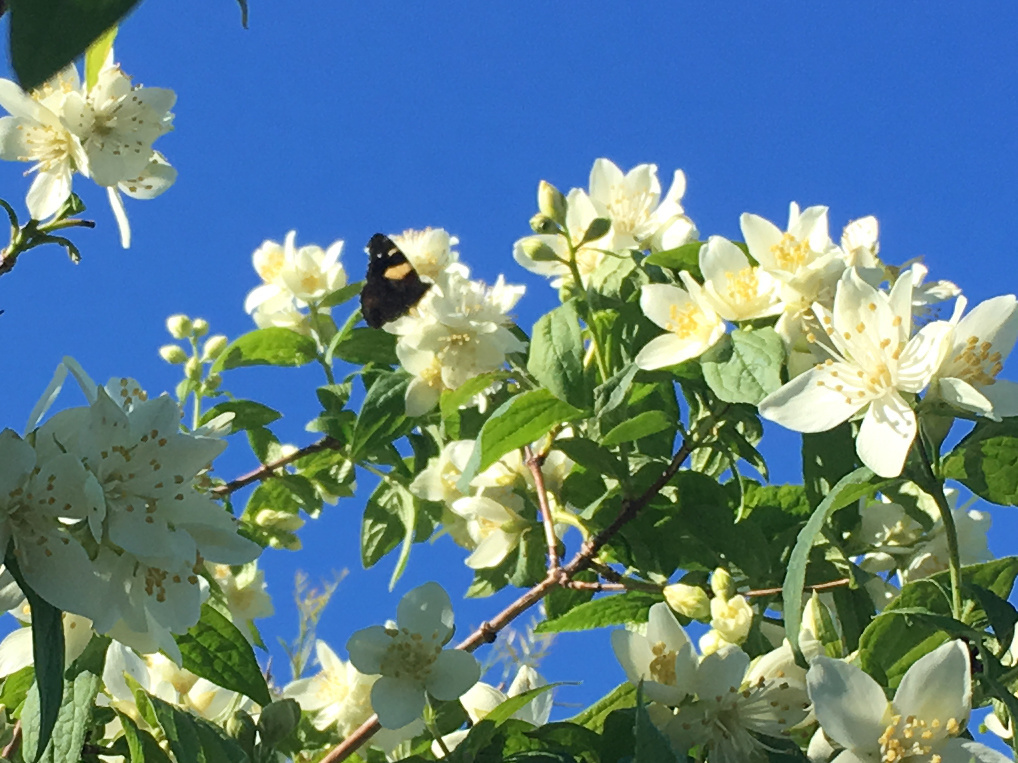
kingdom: Animalia
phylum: Arthropoda
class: Insecta
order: Lepidoptera
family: Nymphalidae
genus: Vanessa
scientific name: Vanessa itea
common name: Yellow admiral
